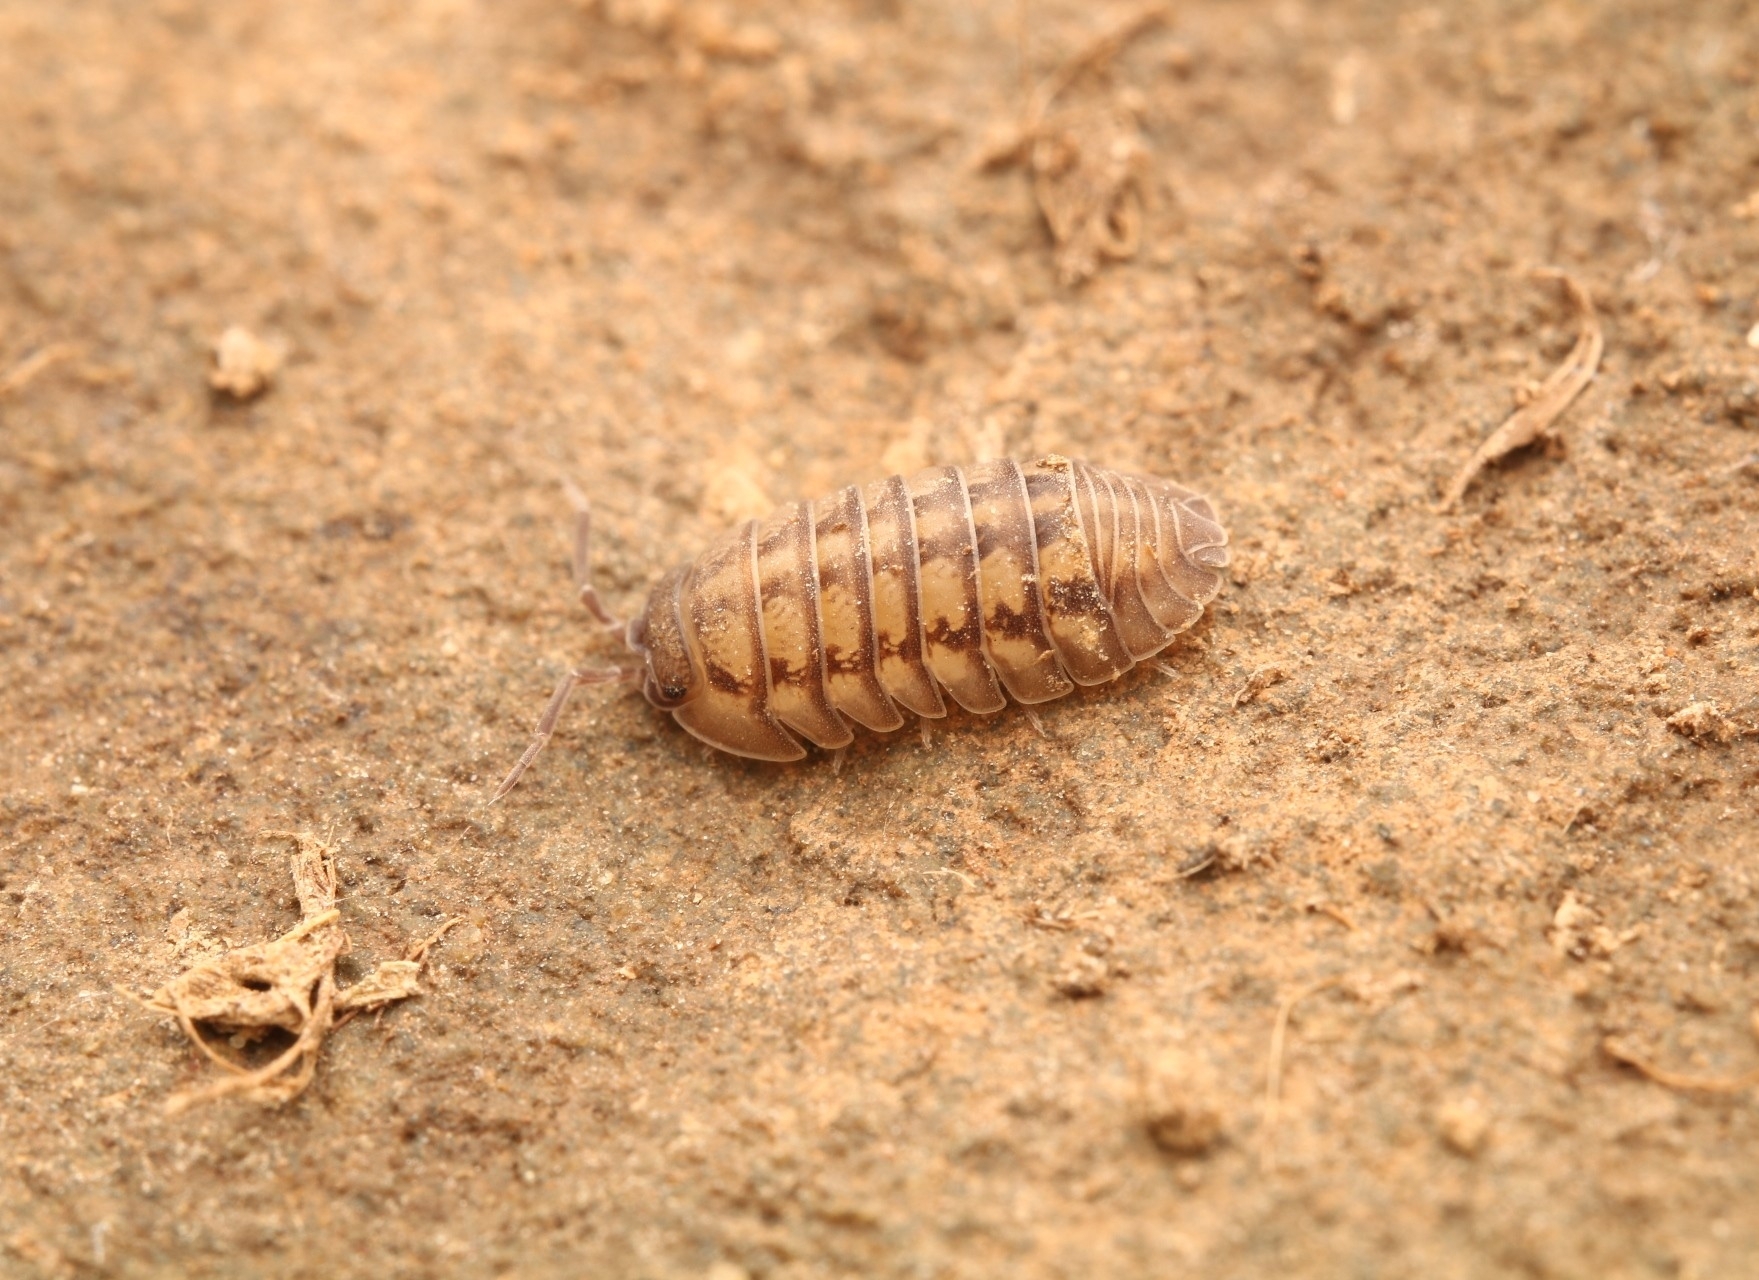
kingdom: Animalia
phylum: Arthropoda
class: Malacostraca
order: Isopoda
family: Armadillidiidae
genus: Armadillidium
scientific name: Armadillidium nasatum
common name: Isopod
